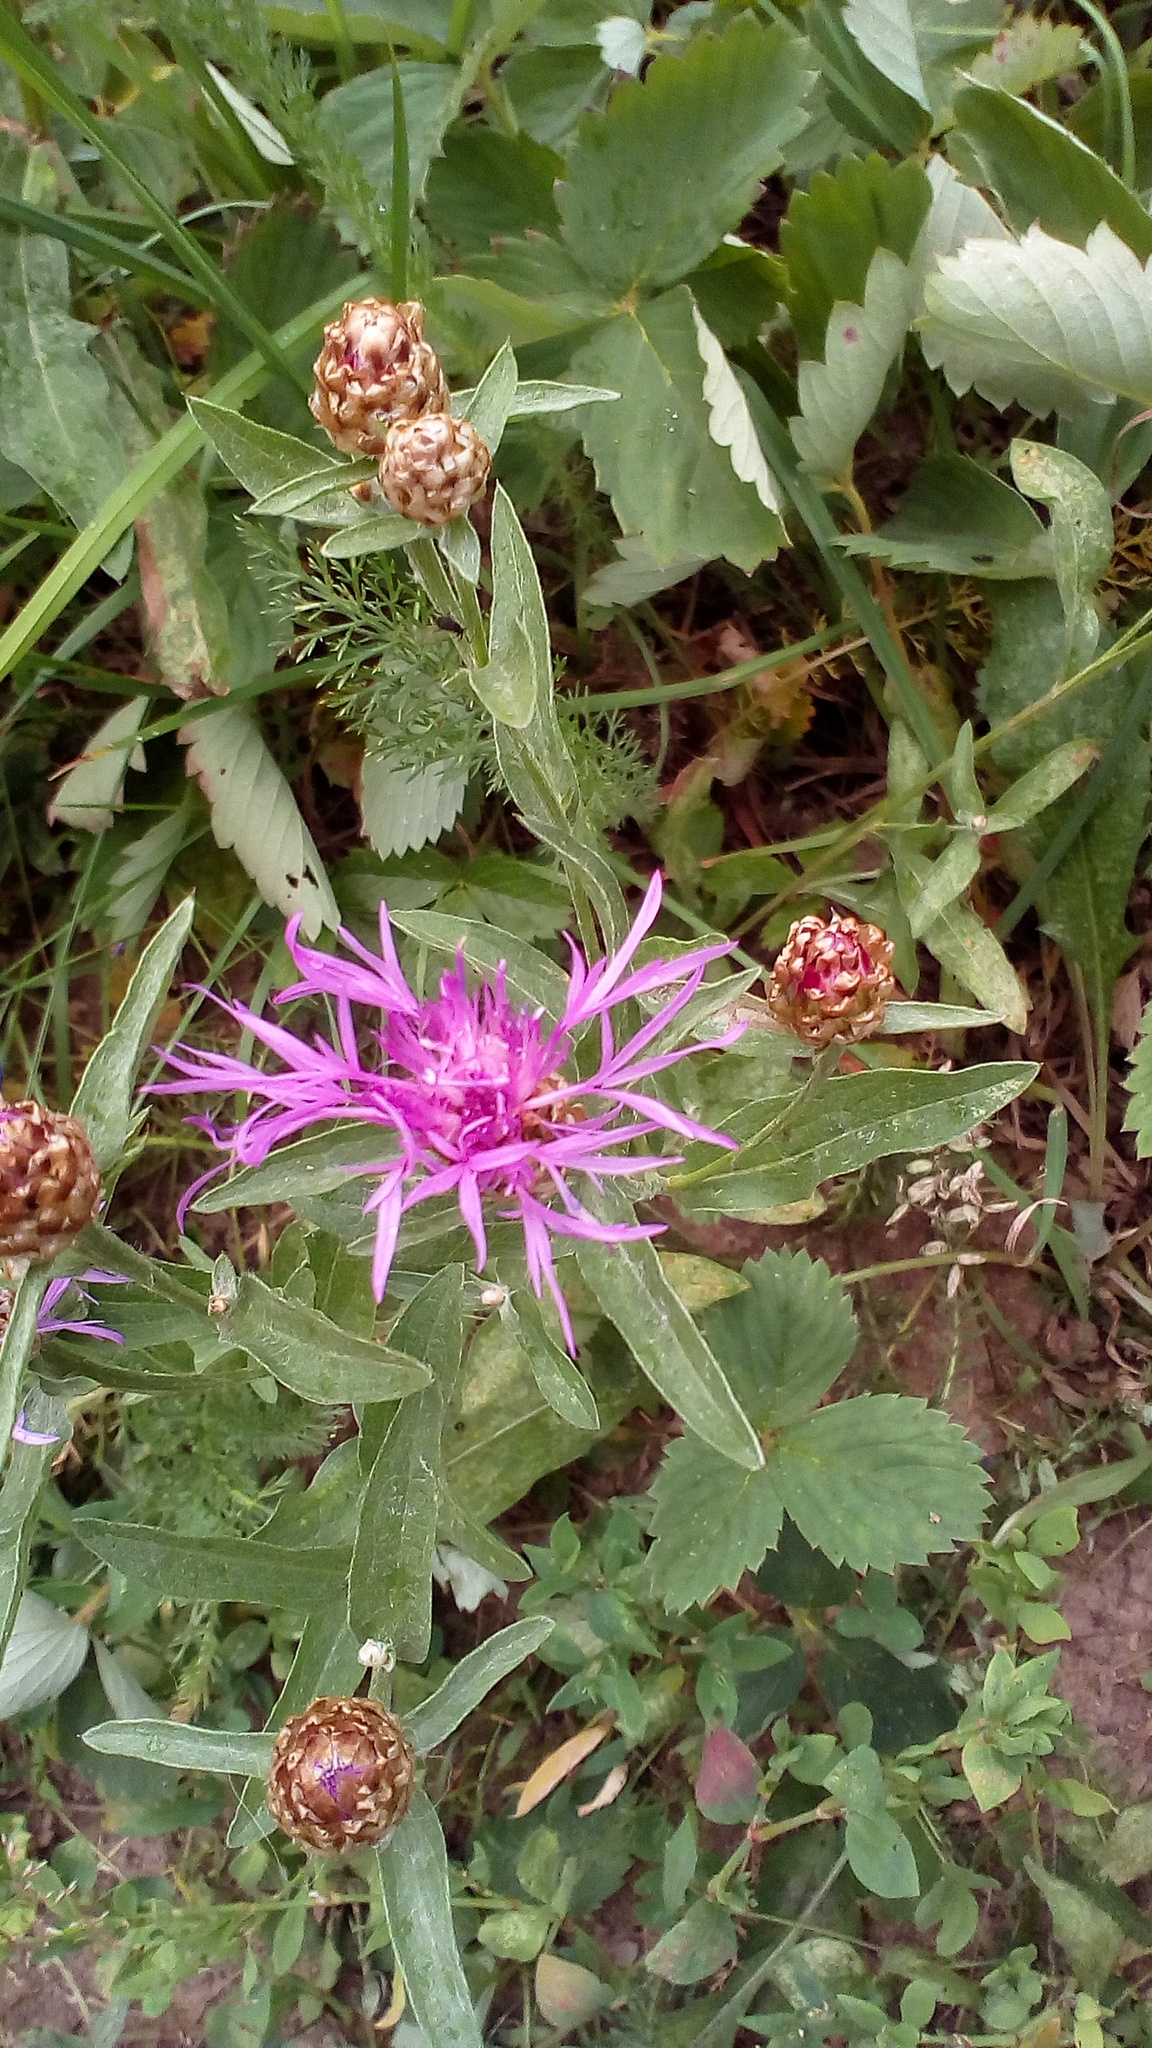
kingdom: Plantae
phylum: Tracheophyta
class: Magnoliopsida
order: Asterales
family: Asteraceae
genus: Centaurea
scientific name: Centaurea jacea
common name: Brown knapweed
